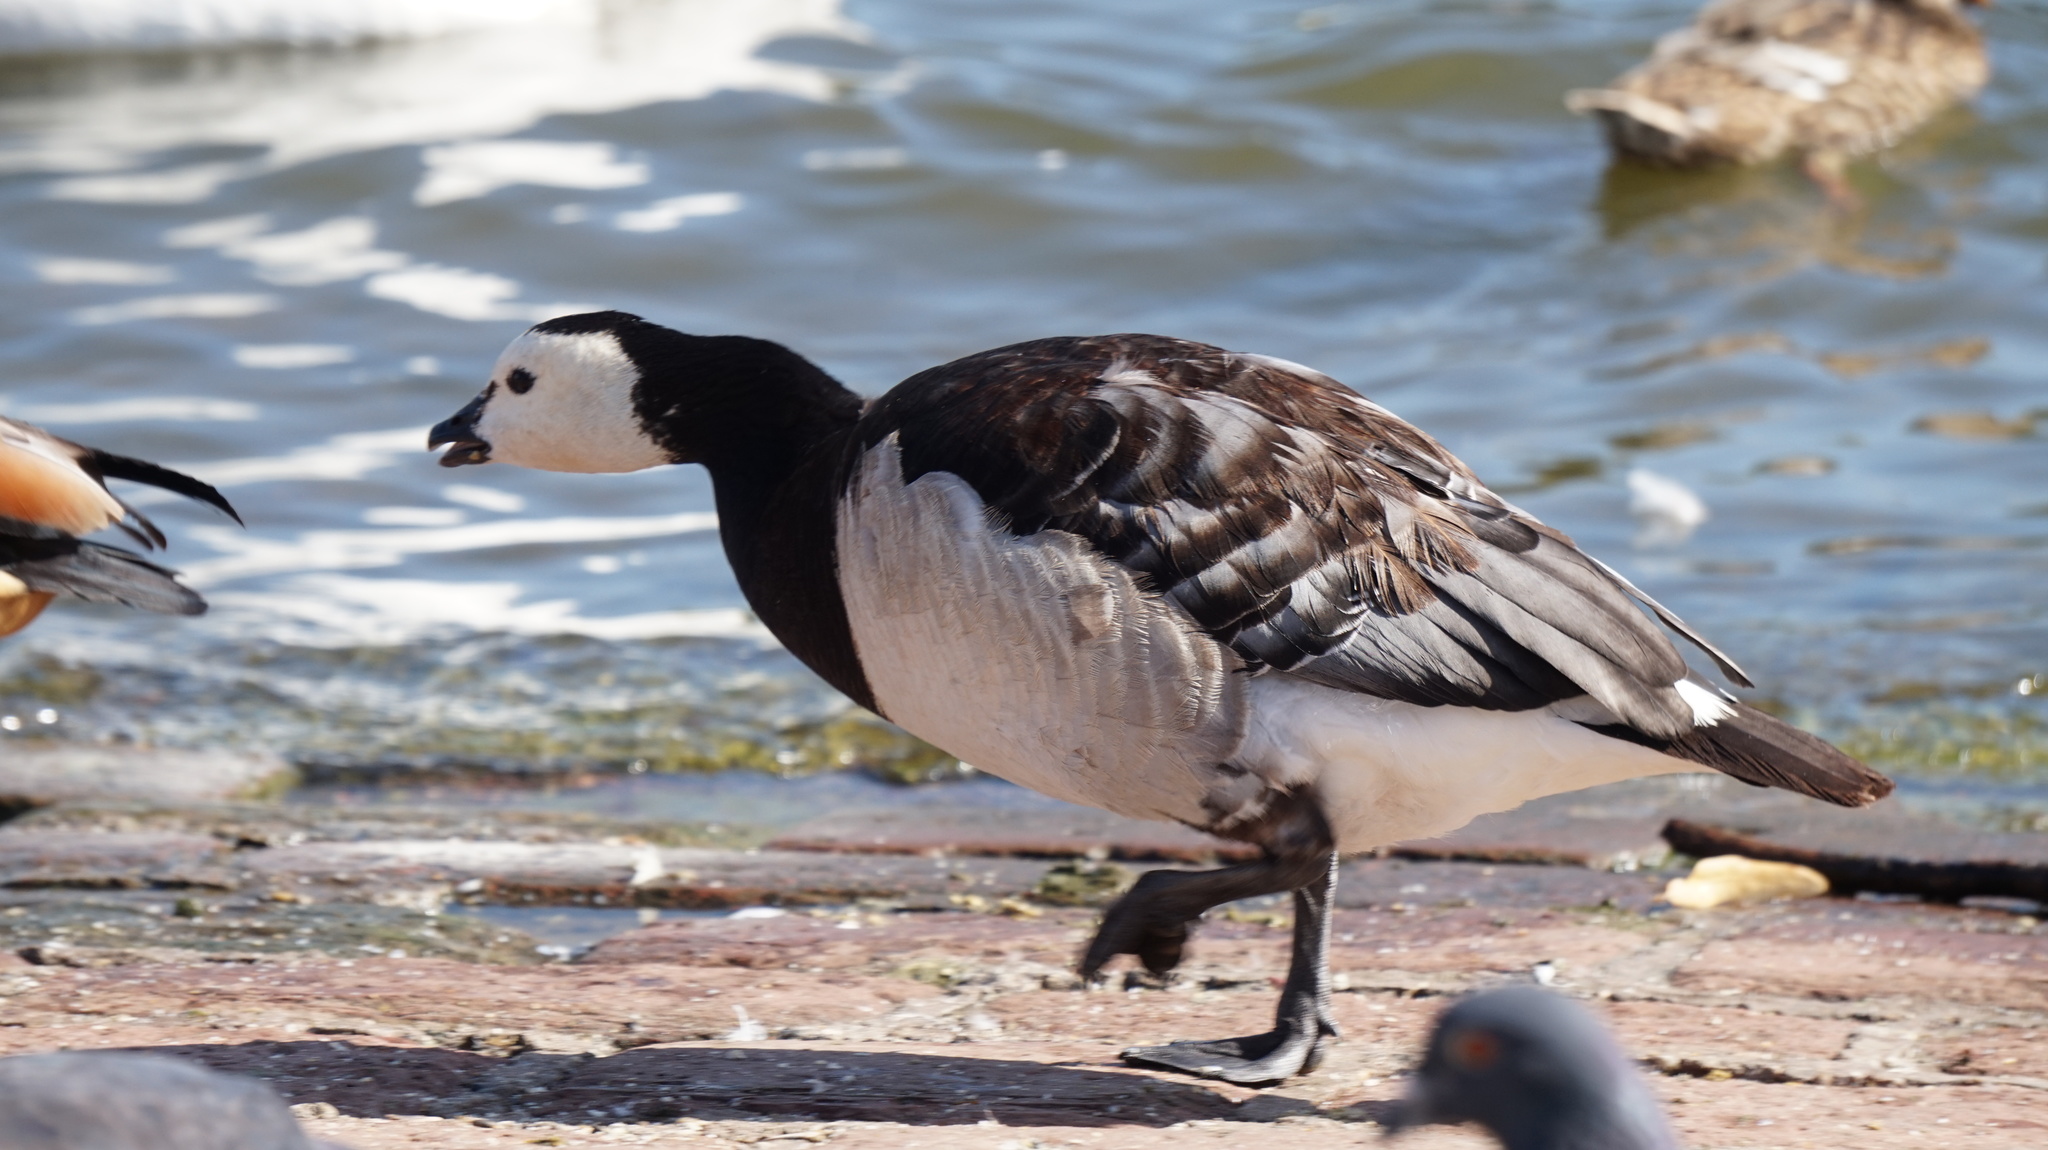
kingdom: Animalia
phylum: Chordata
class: Aves
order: Anseriformes
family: Anatidae
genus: Branta
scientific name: Branta leucopsis
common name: Barnacle goose
